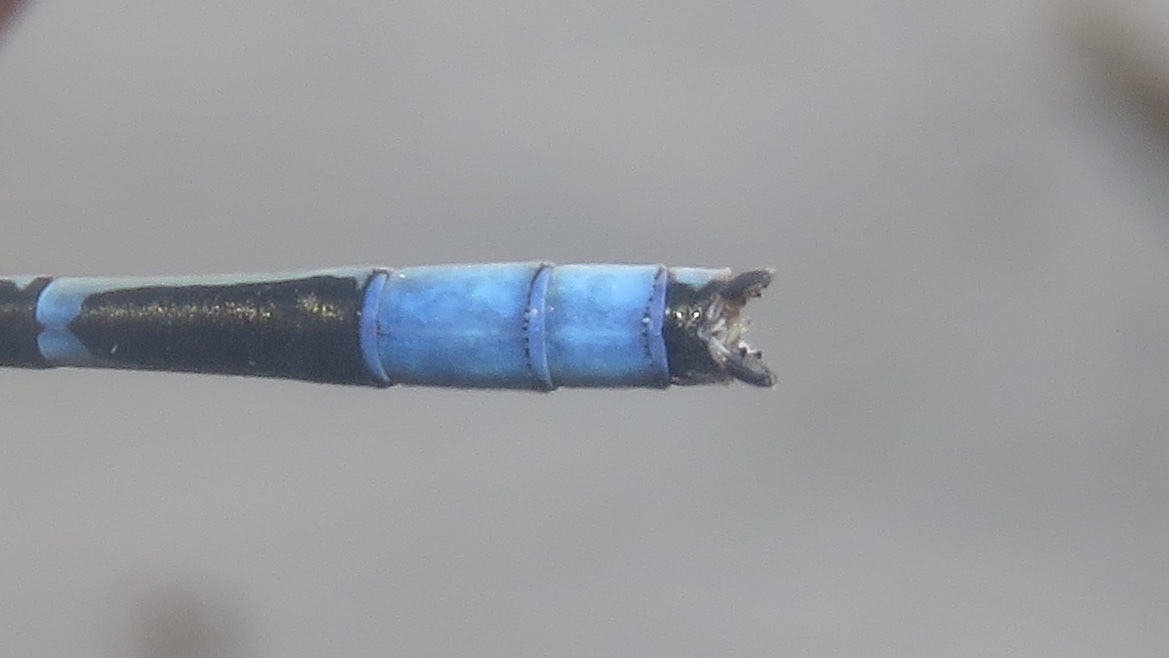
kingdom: Animalia
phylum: Arthropoda
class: Insecta
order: Odonata
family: Coenagrionidae
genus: Enallagma
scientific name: Enallagma civile
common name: Damselfly
